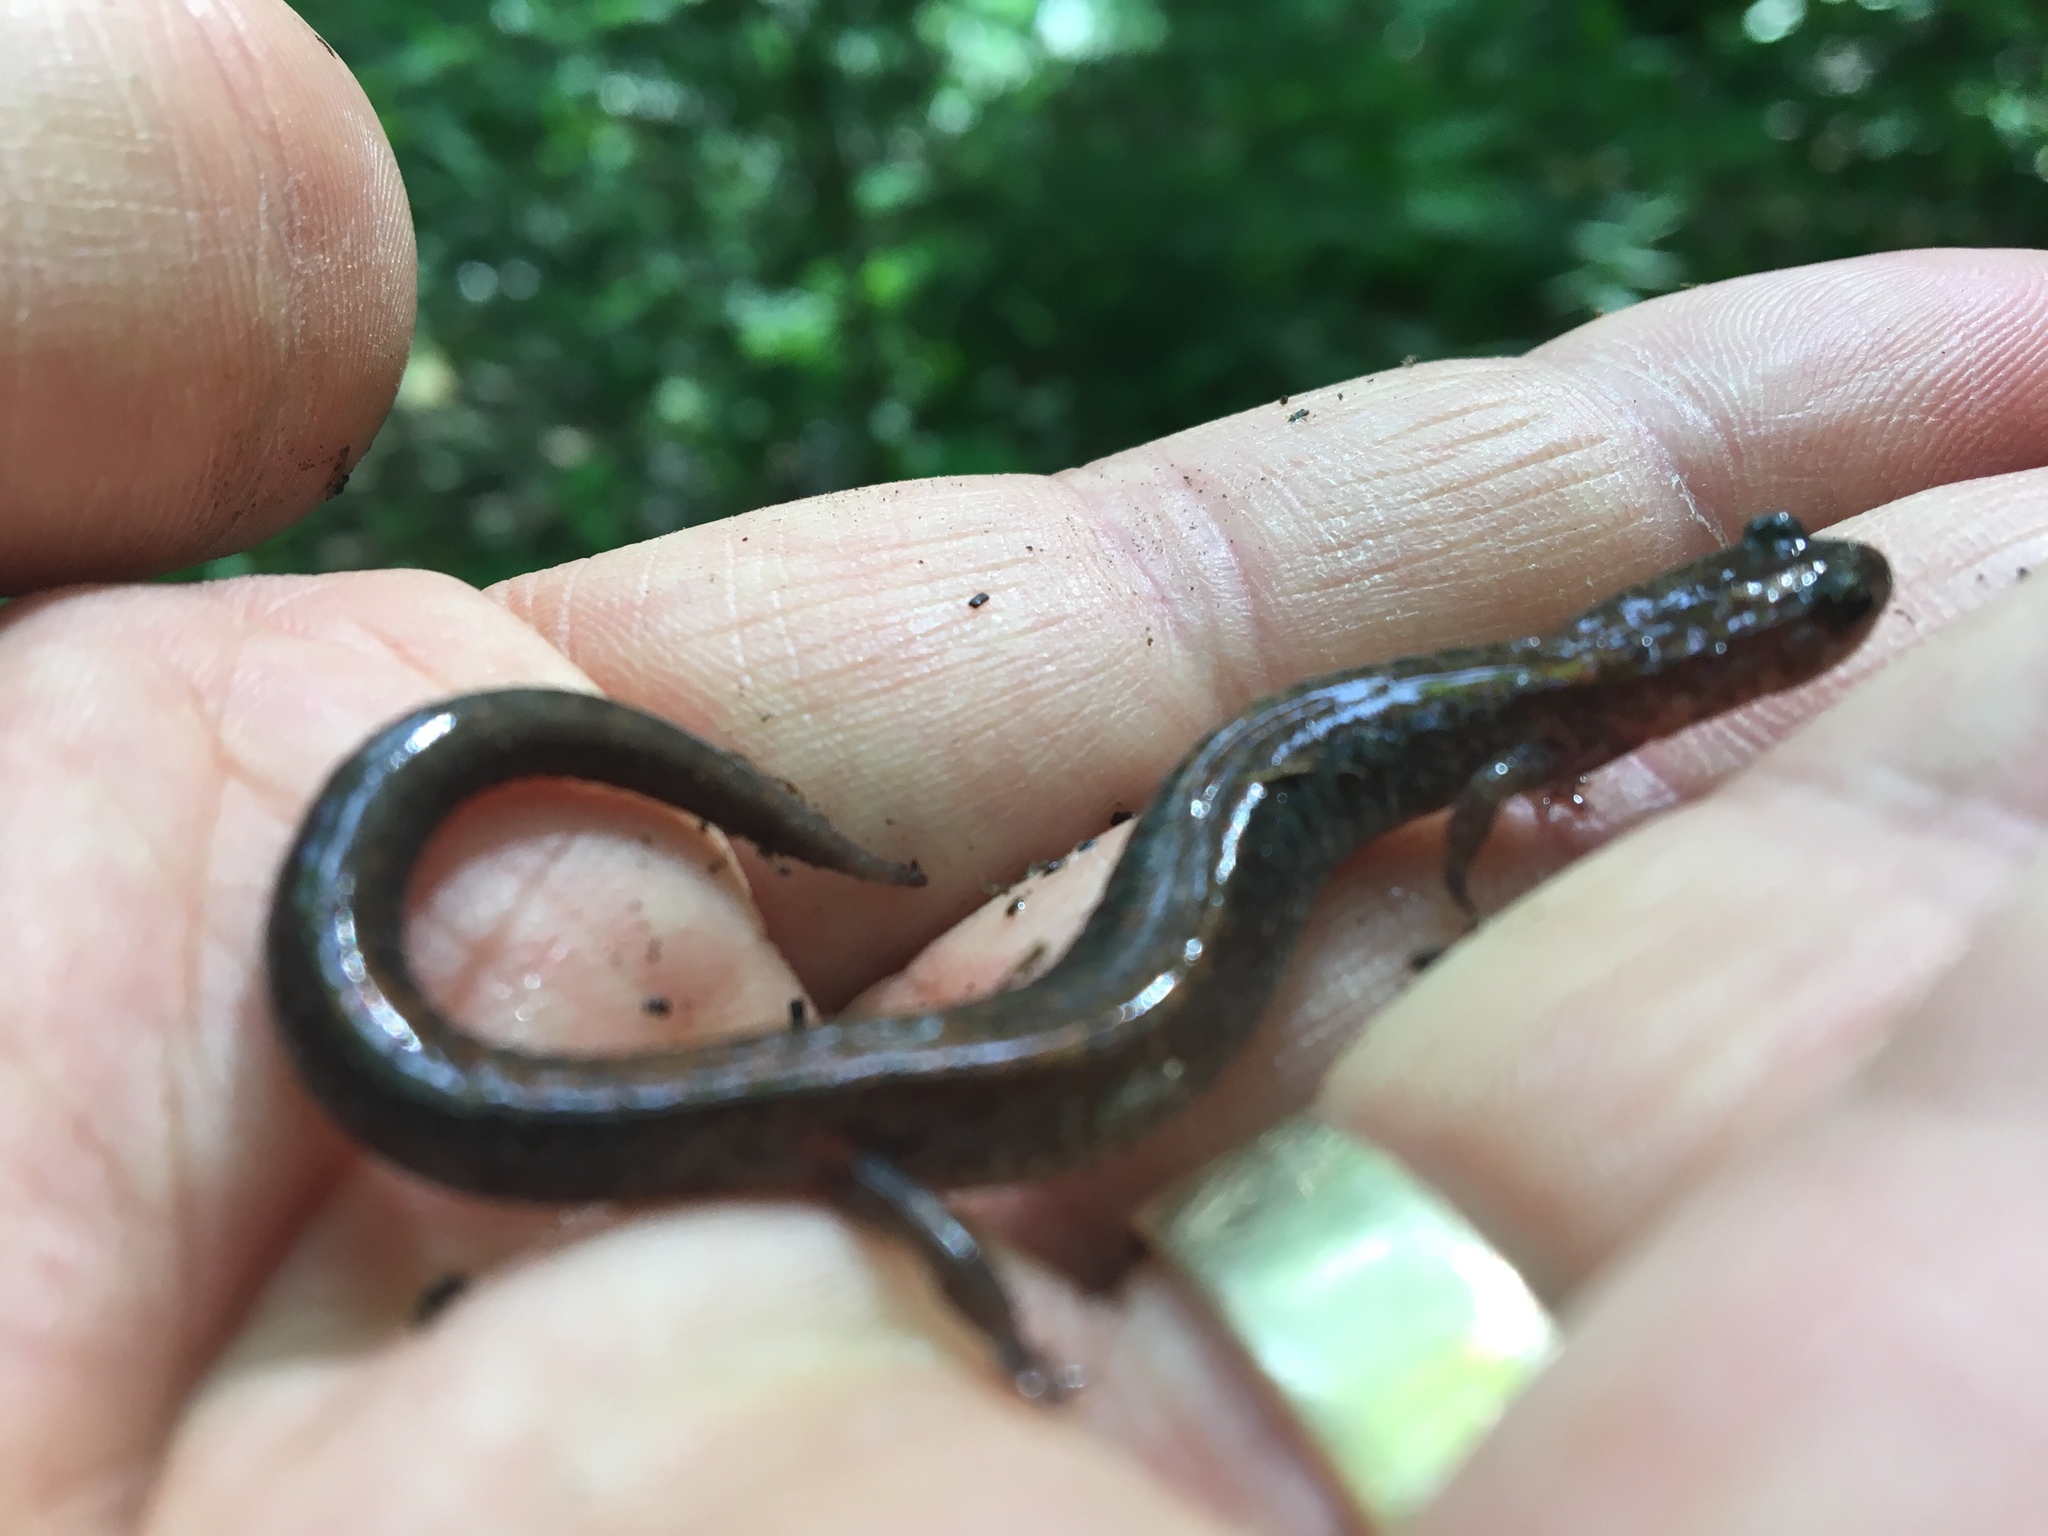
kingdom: Animalia
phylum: Chordata
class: Amphibia
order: Caudata
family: Plethodontidae
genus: Plethodon
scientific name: Plethodon cinereus
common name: Redback salamander
